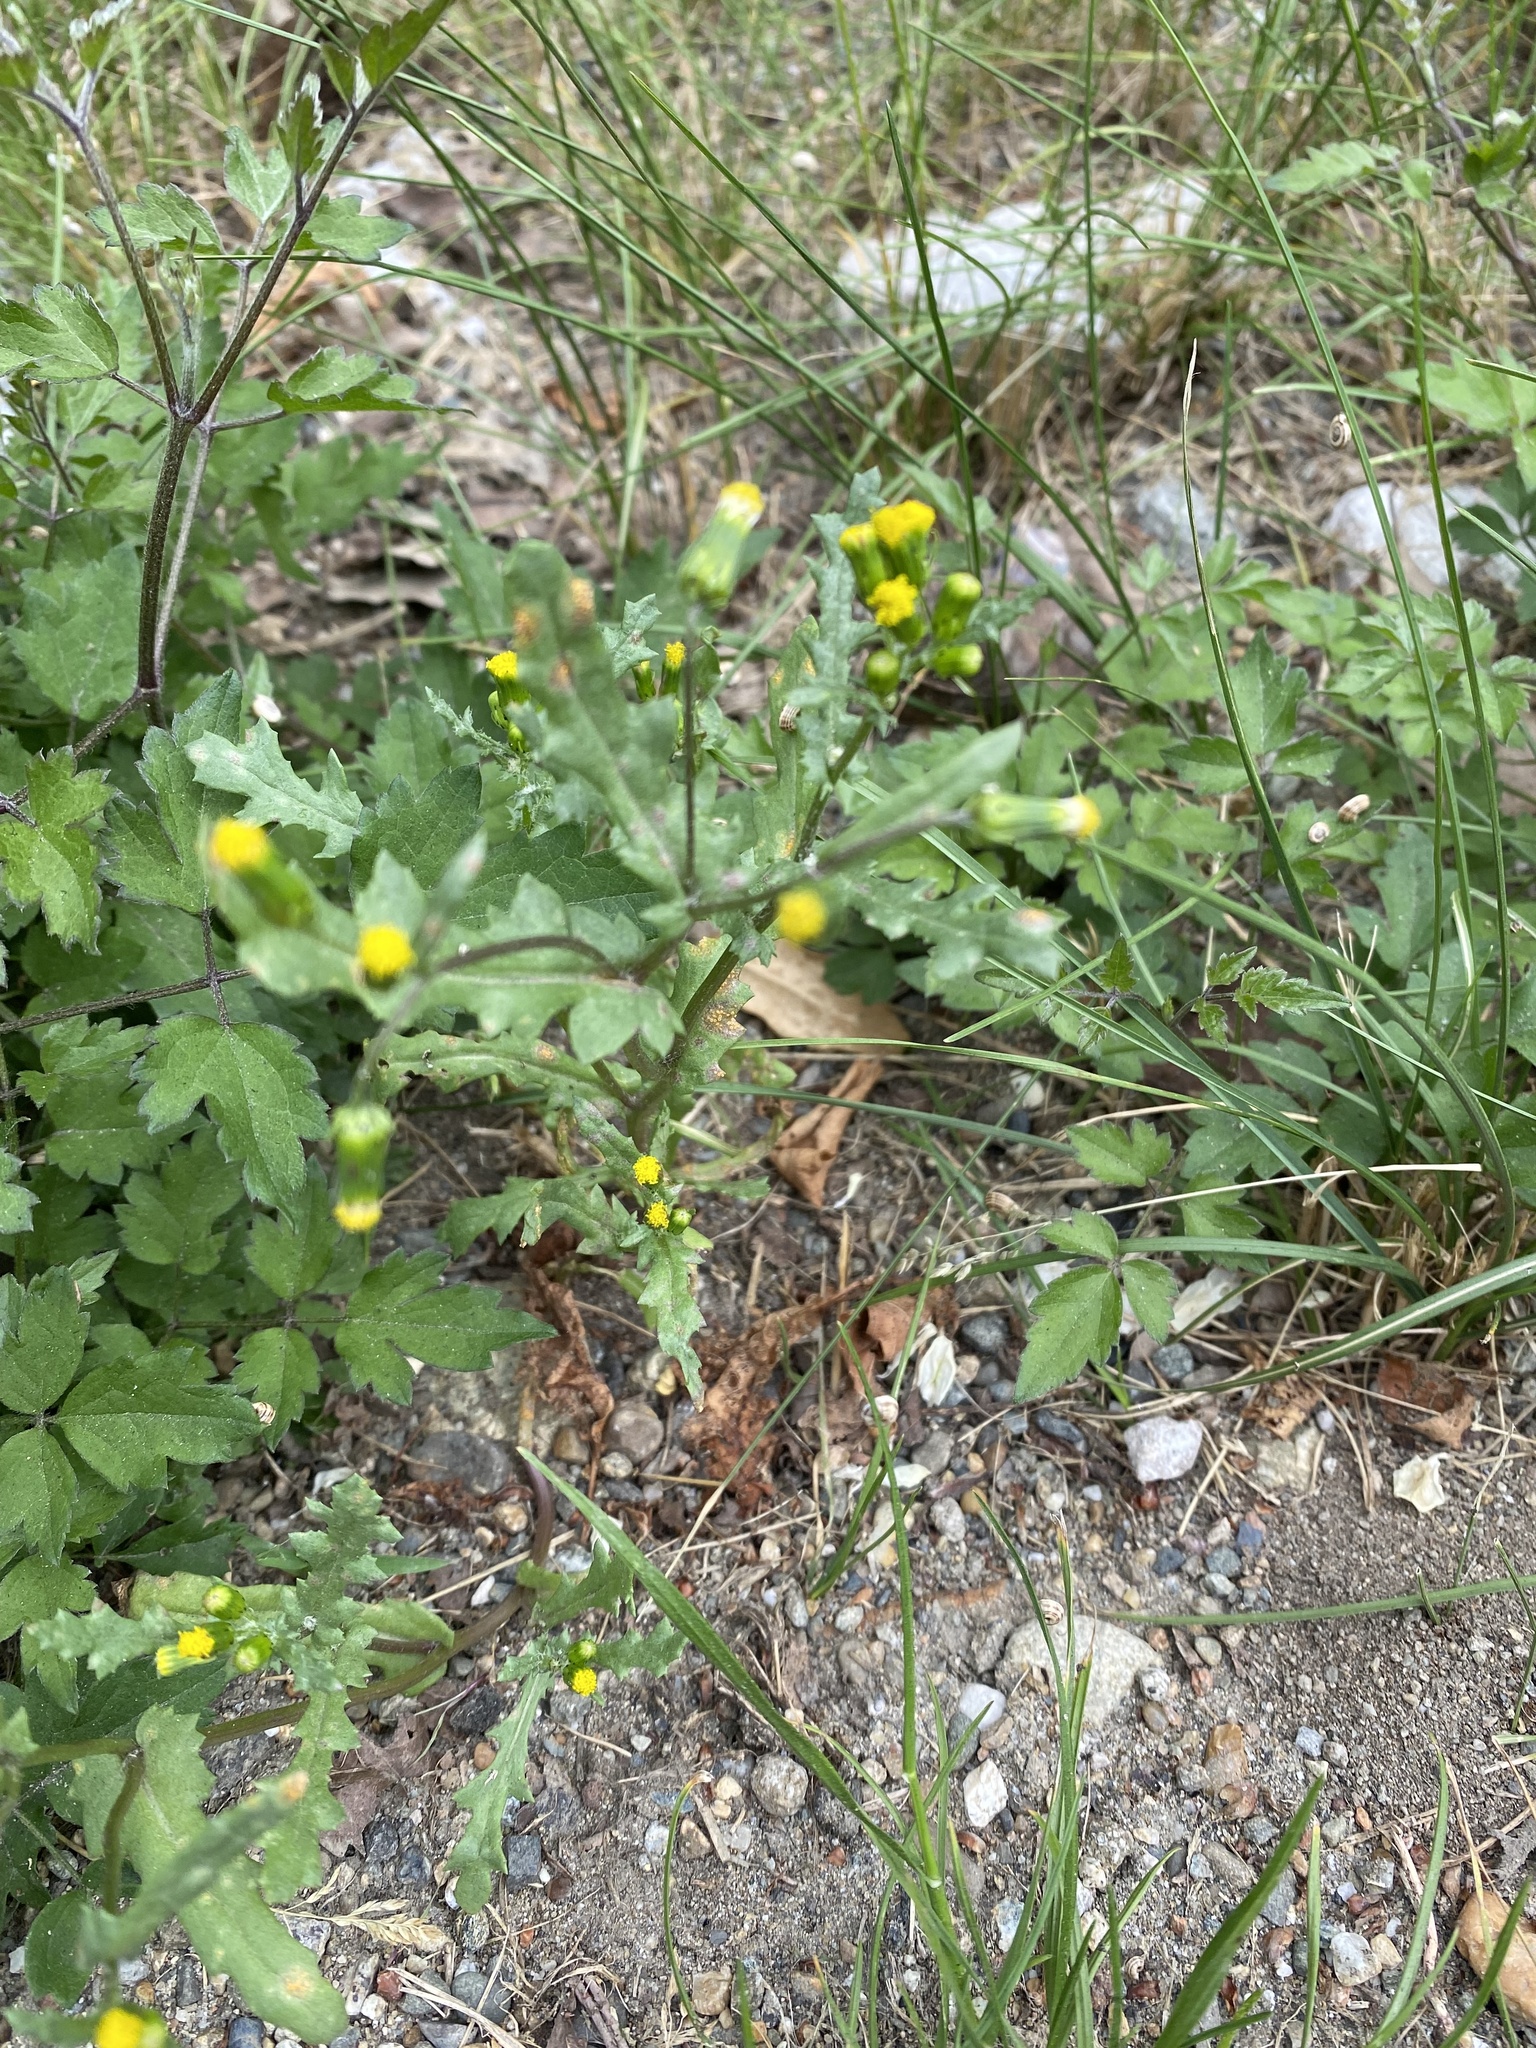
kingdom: Plantae
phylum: Tracheophyta
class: Magnoliopsida
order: Asterales
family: Asteraceae
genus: Senecio
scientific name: Senecio vulgaris
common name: Old-man-in-the-spring
